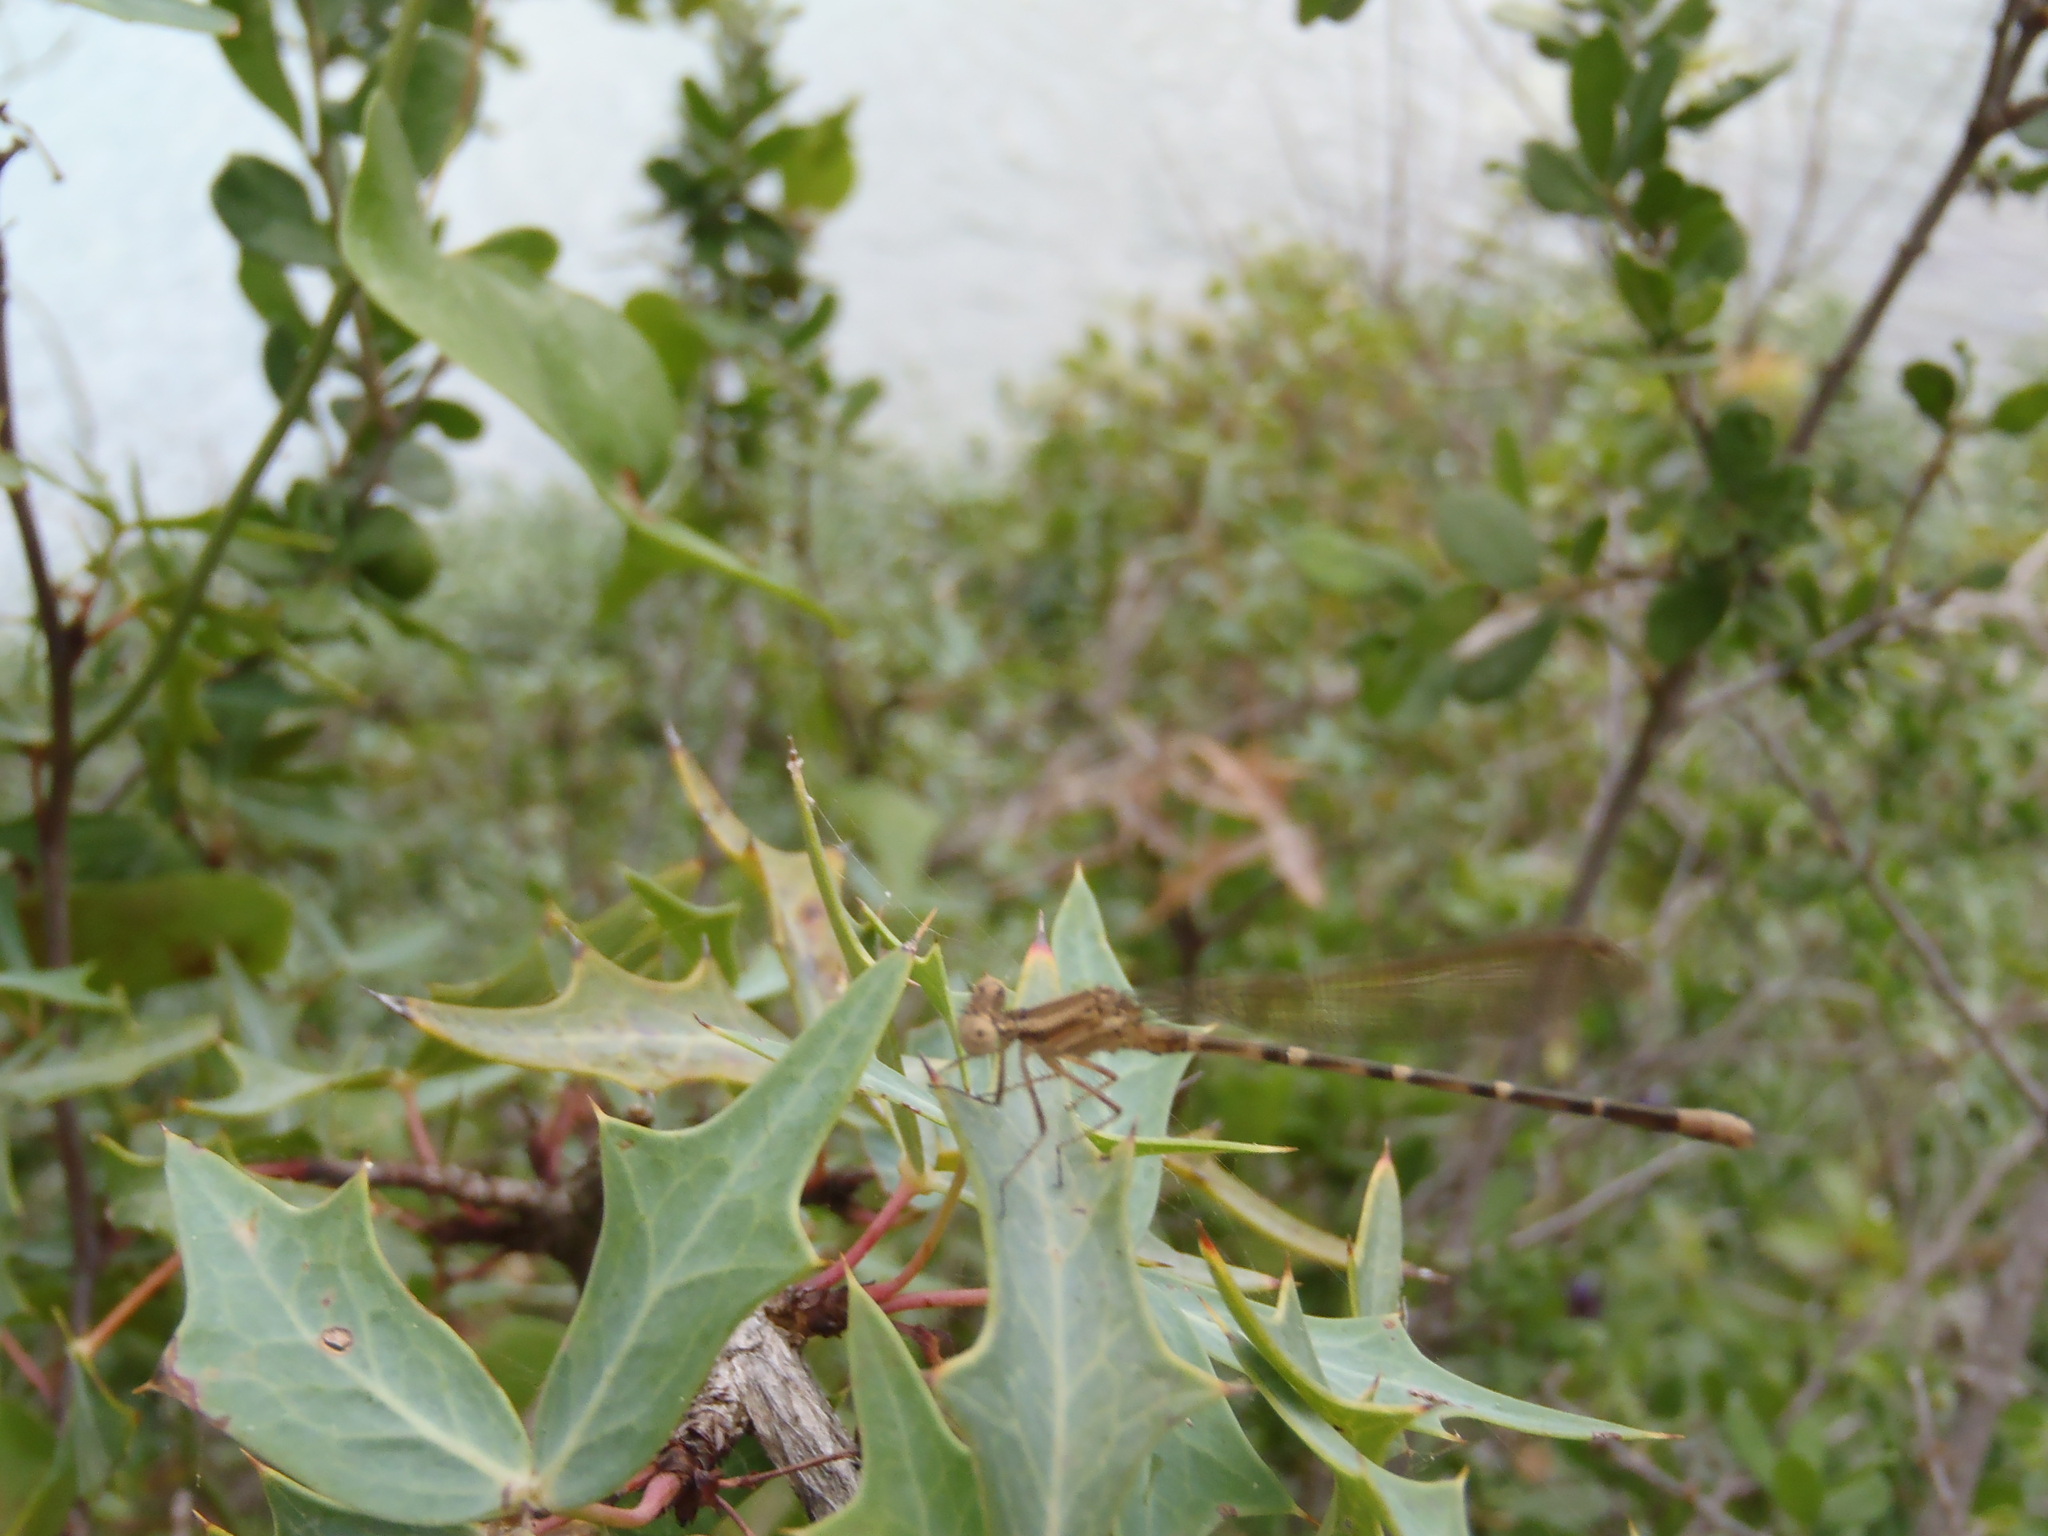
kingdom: Plantae
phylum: Tracheophyta
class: Magnoliopsida
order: Ranunculales
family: Berberidaceae
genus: Alloberberis
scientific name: Alloberberis trifoliolata
